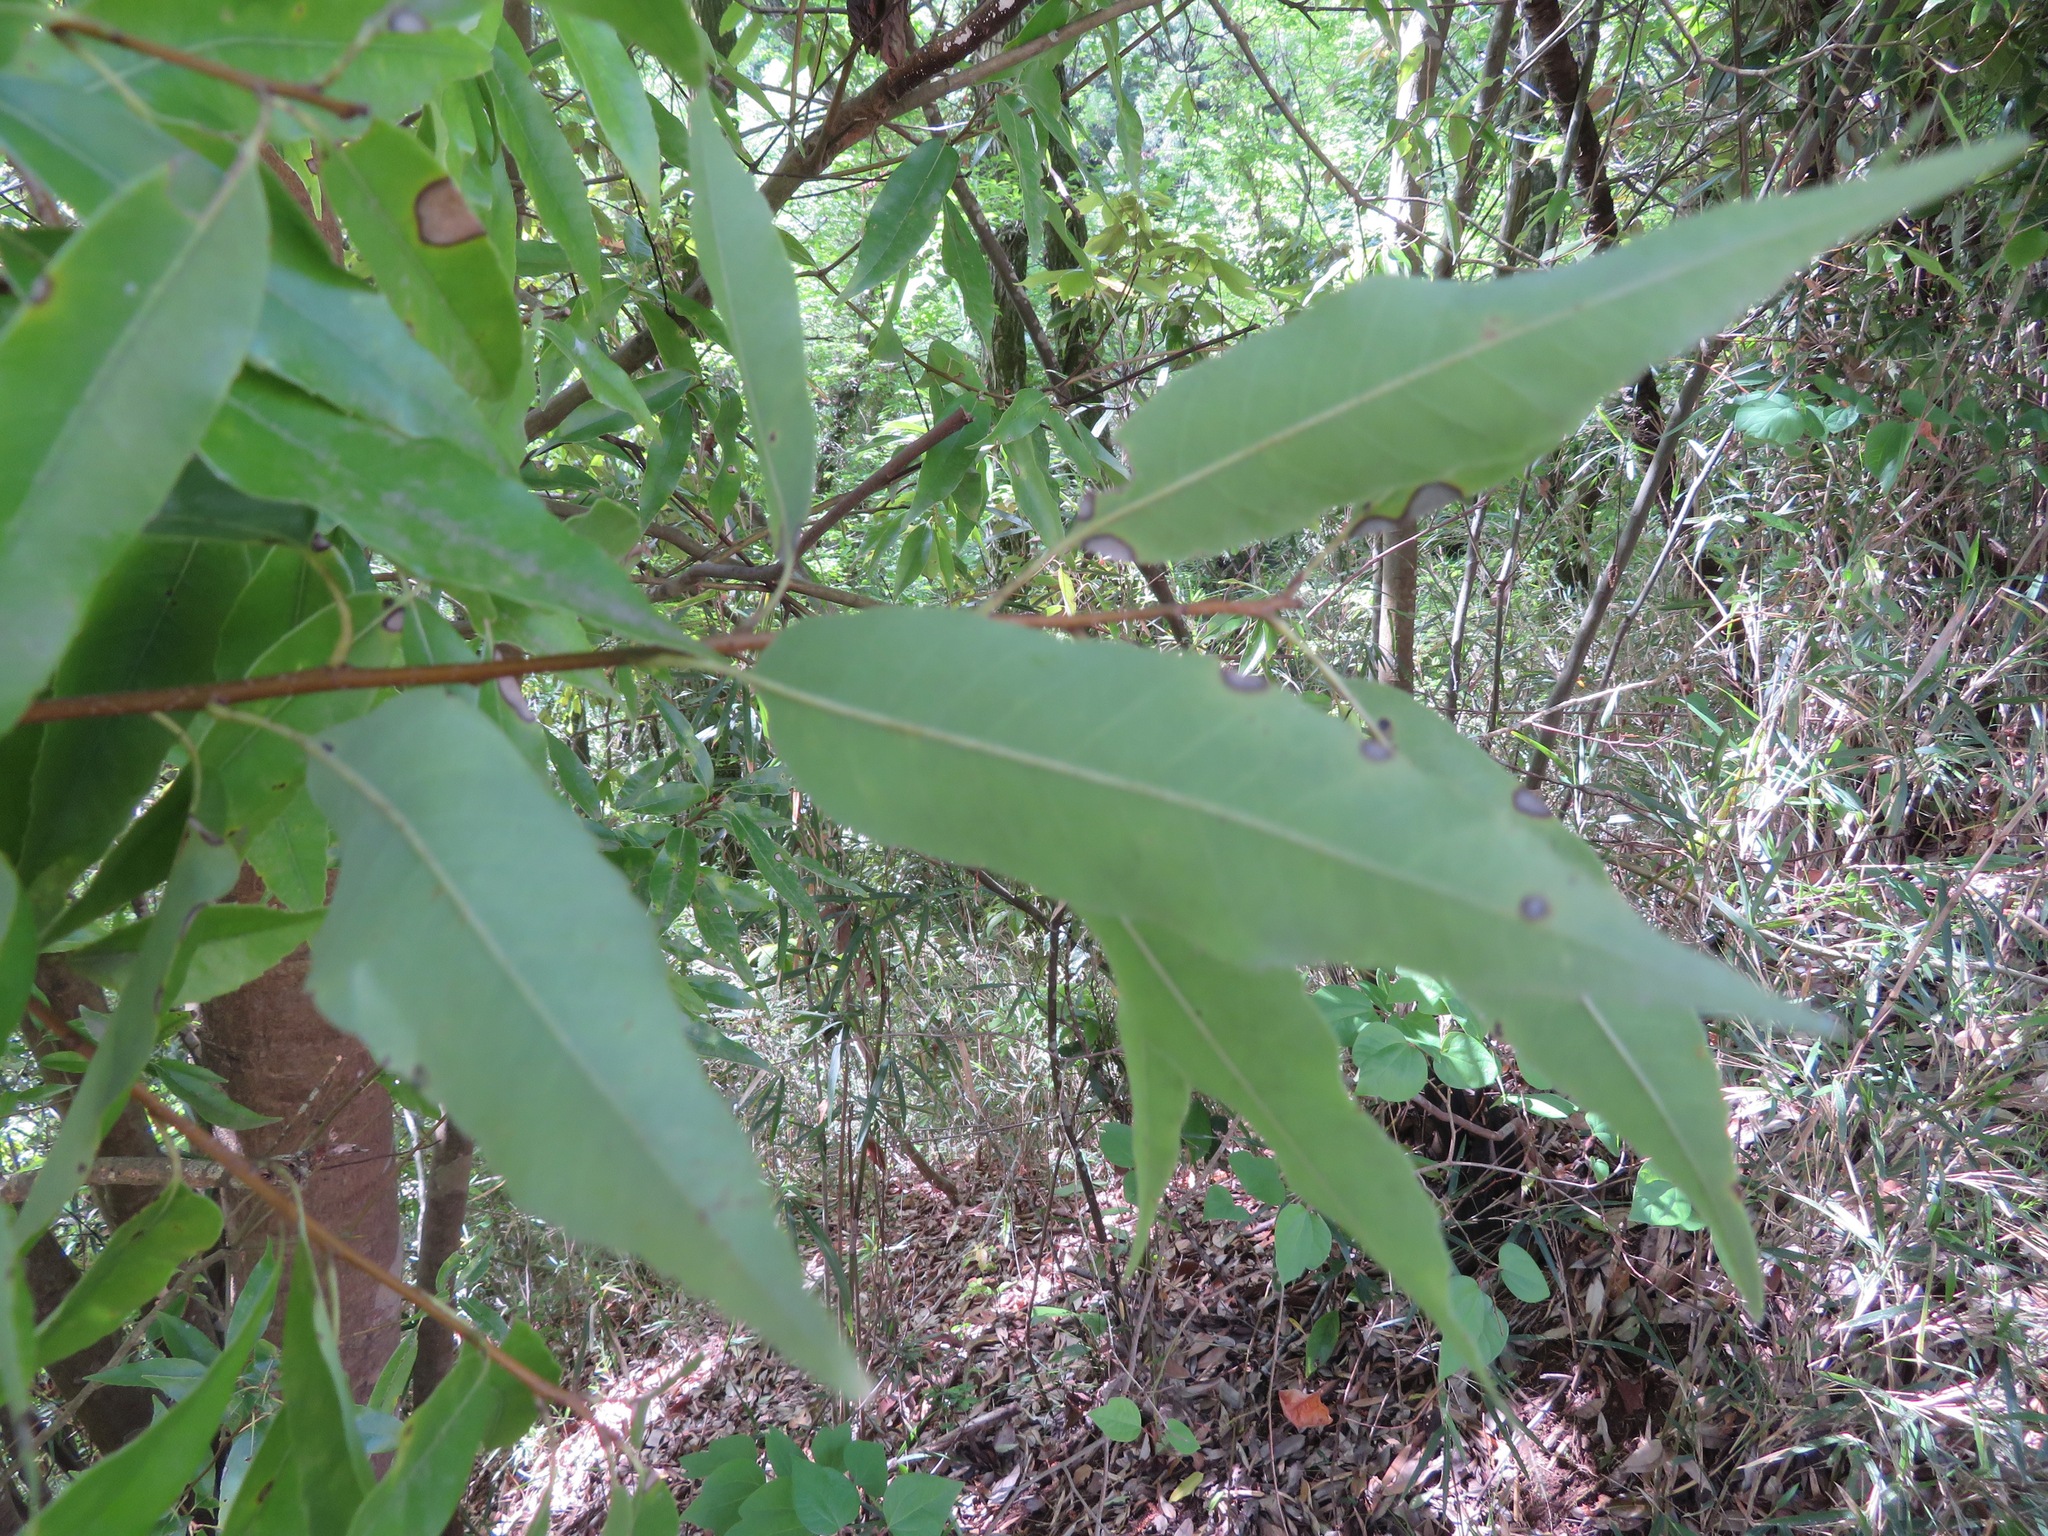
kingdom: Plantae
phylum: Tracheophyta
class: Magnoliopsida
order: Fagales
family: Fagaceae
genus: Quercus
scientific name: Quercus myrsinifolia
